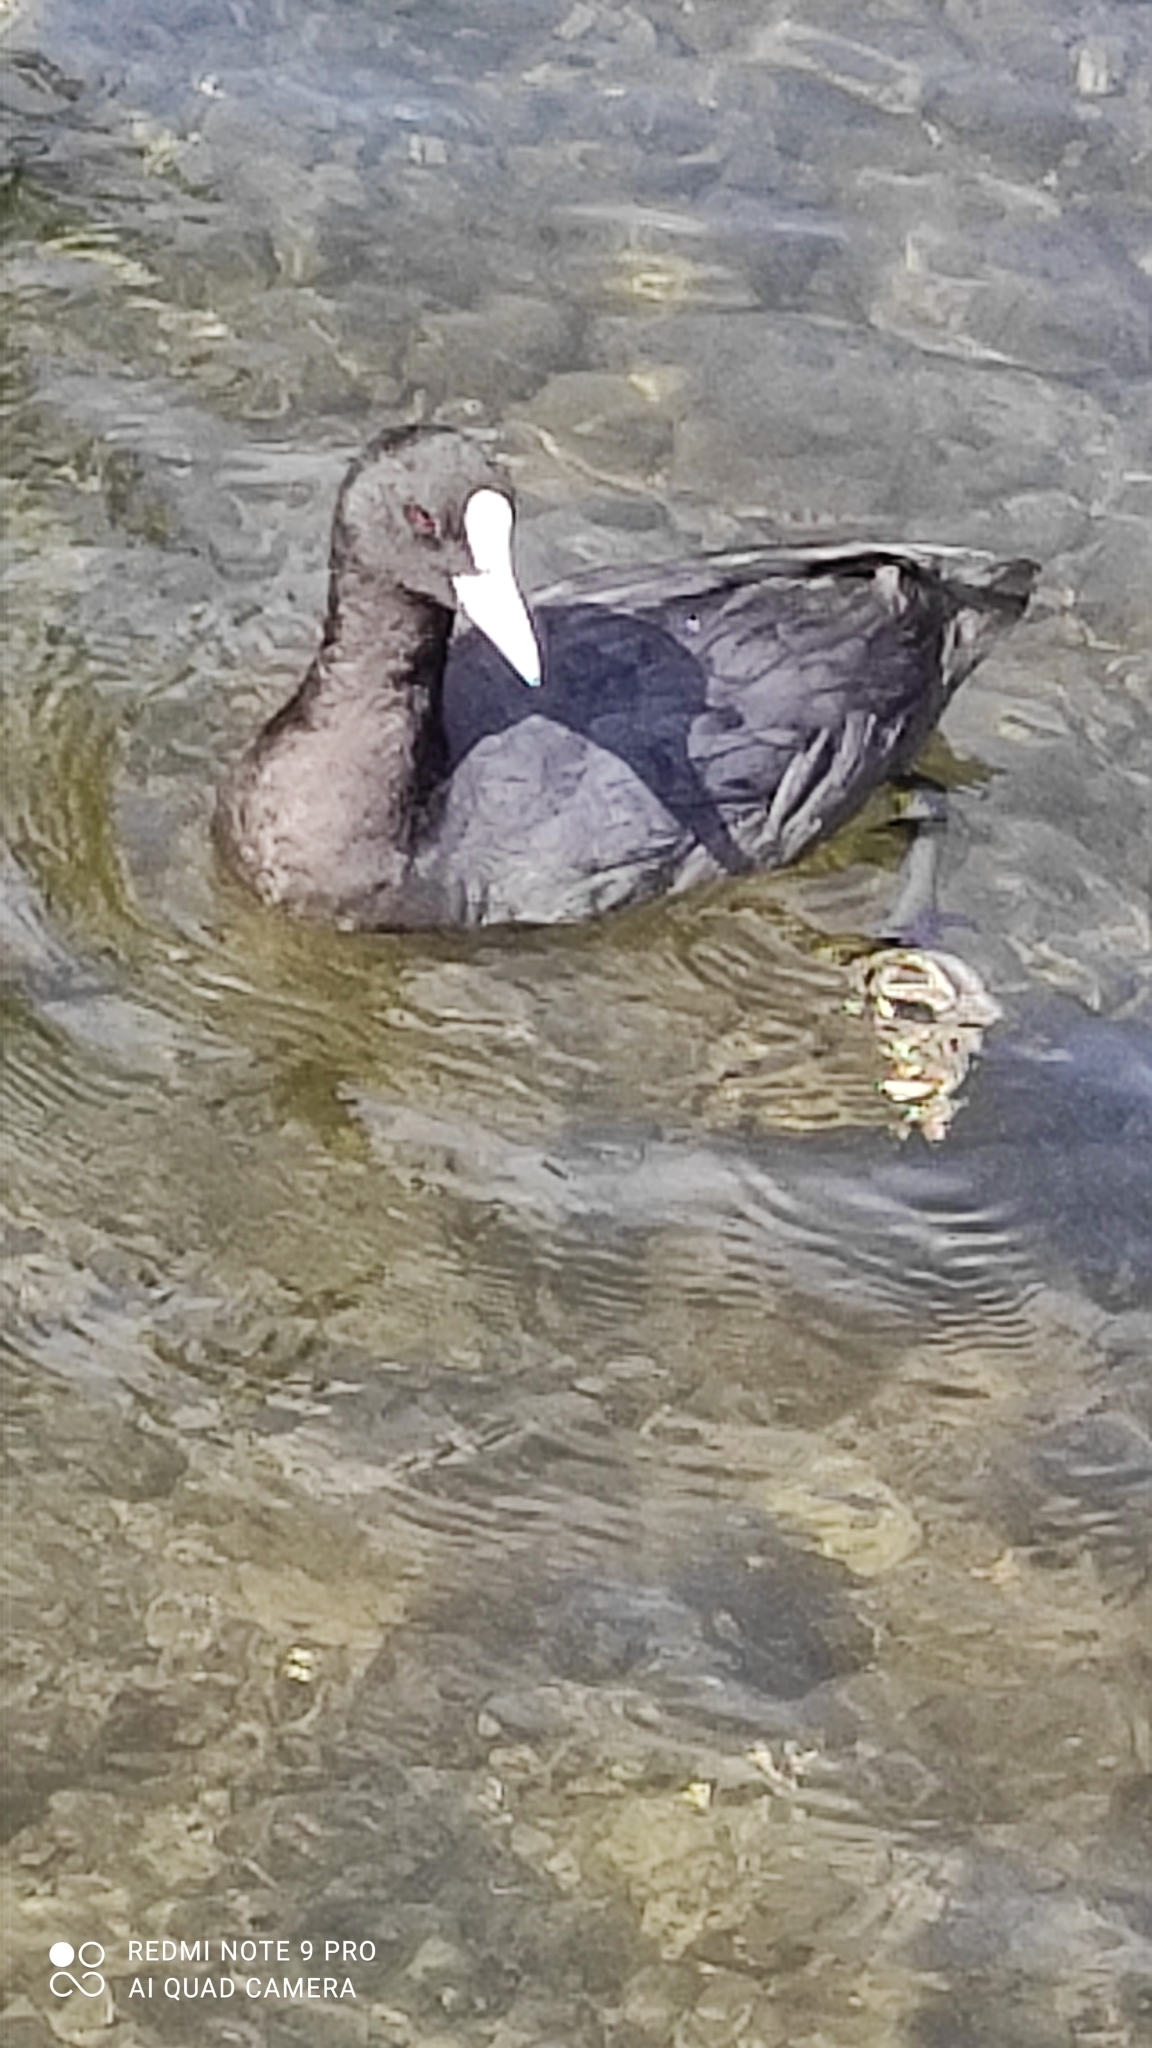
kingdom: Animalia
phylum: Chordata
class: Aves
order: Gruiformes
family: Rallidae
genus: Fulica
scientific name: Fulica atra
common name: Eurasian coot
